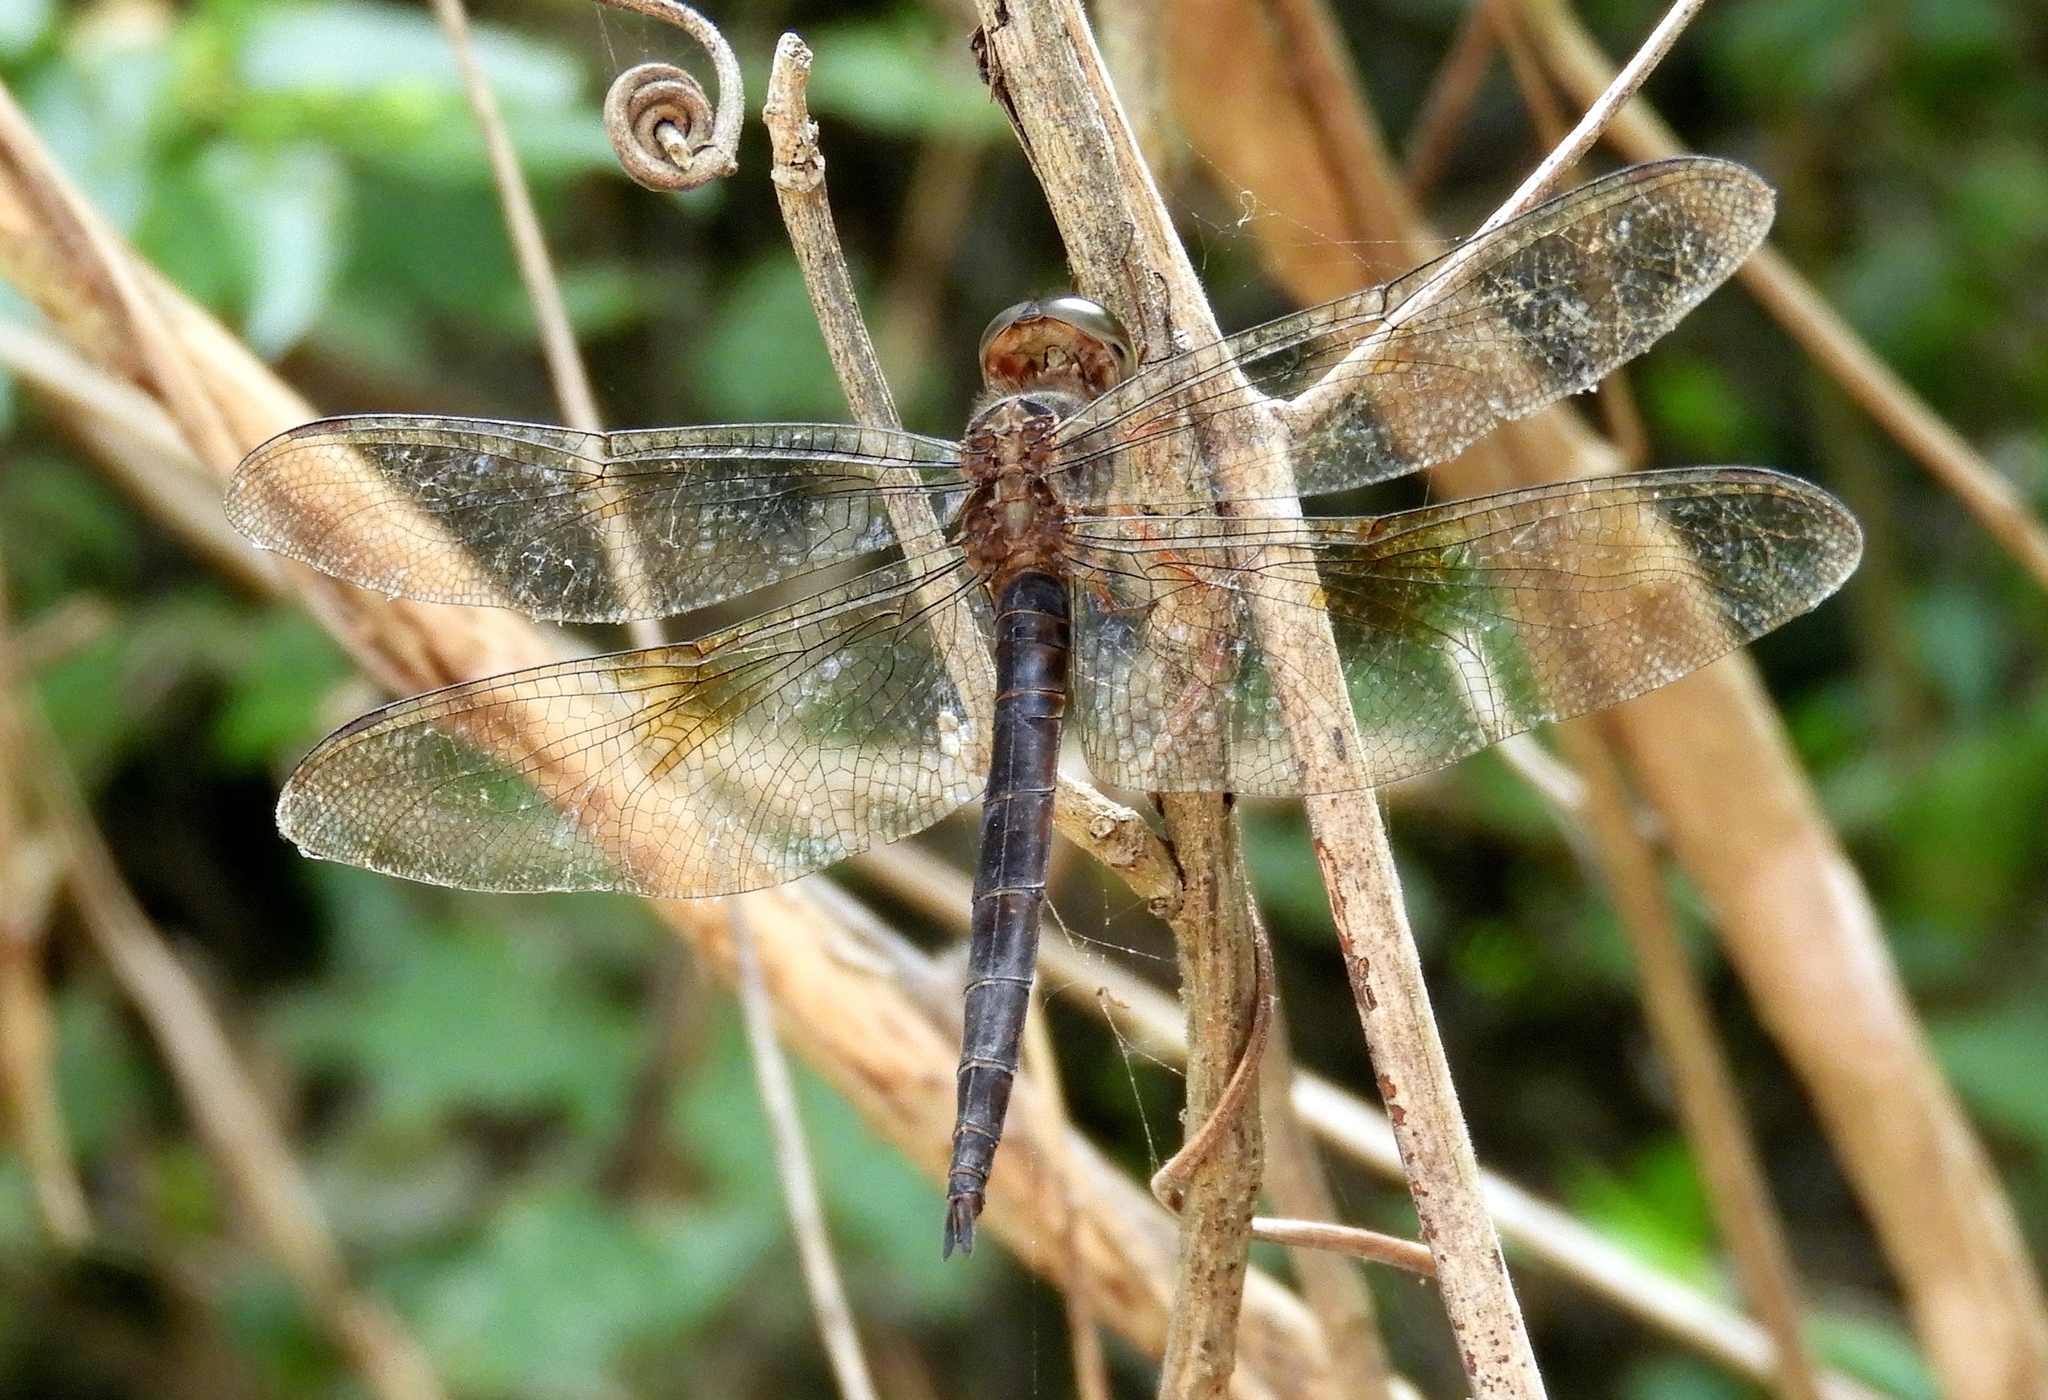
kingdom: Animalia
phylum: Arthropoda
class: Insecta
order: Odonata
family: Libellulidae
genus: Tholymis
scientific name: Tholymis citrina
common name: Evening skimmer
